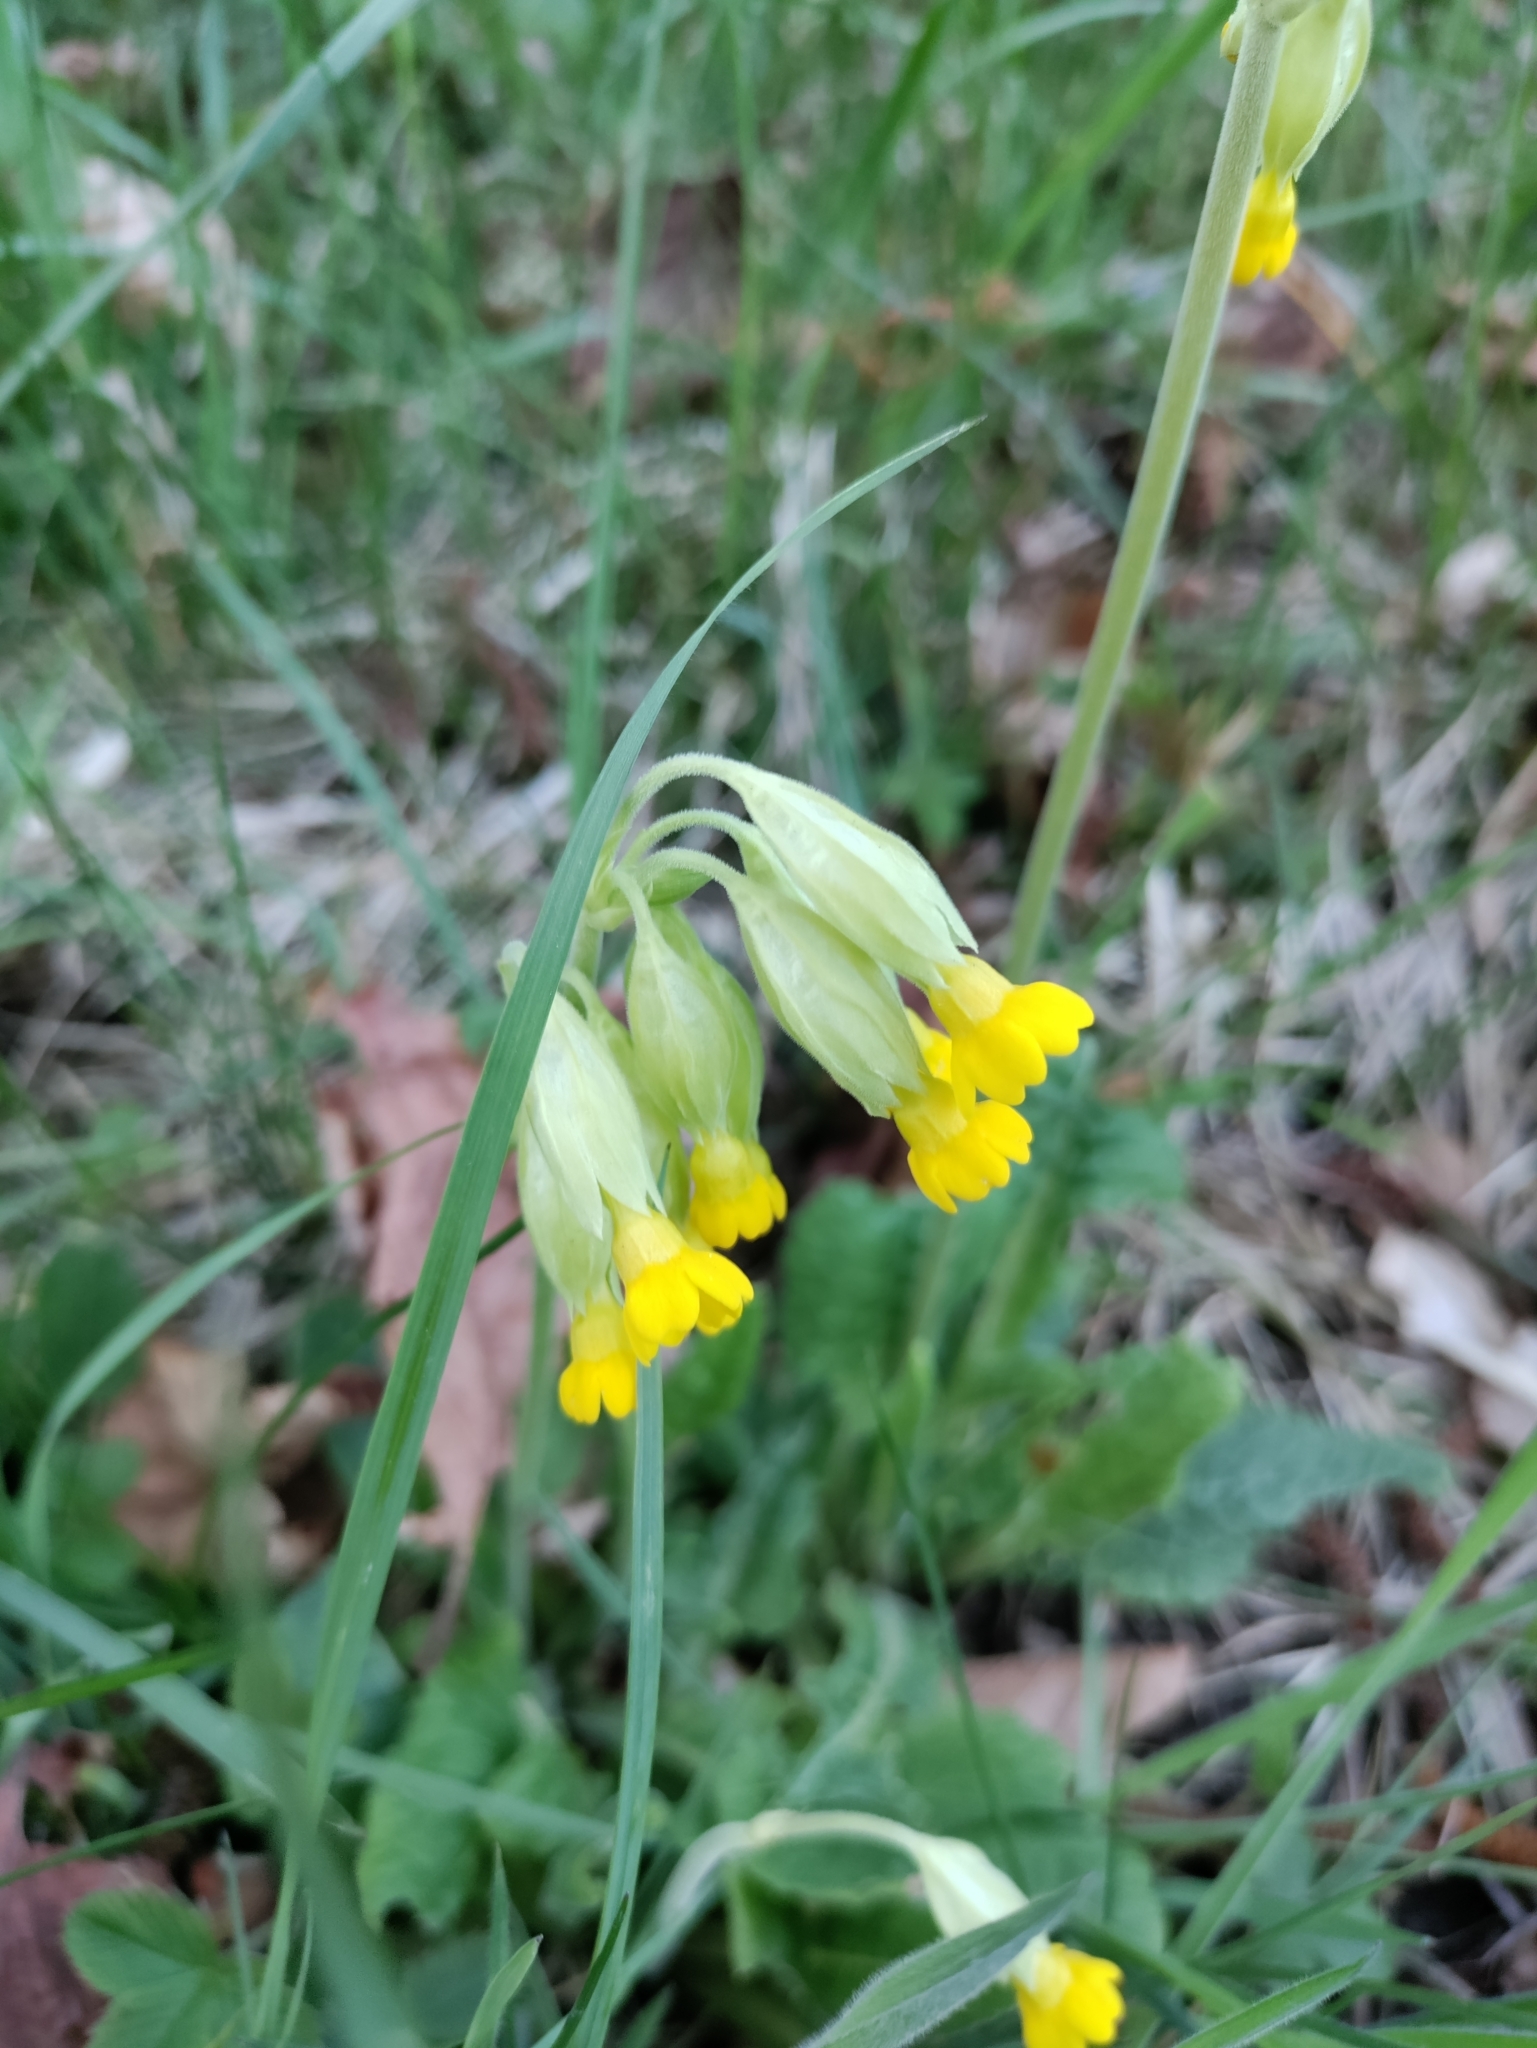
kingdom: Plantae
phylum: Tracheophyta
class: Magnoliopsida
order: Ericales
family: Primulaceae
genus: Primula
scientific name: Primula veris
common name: Cowslip
